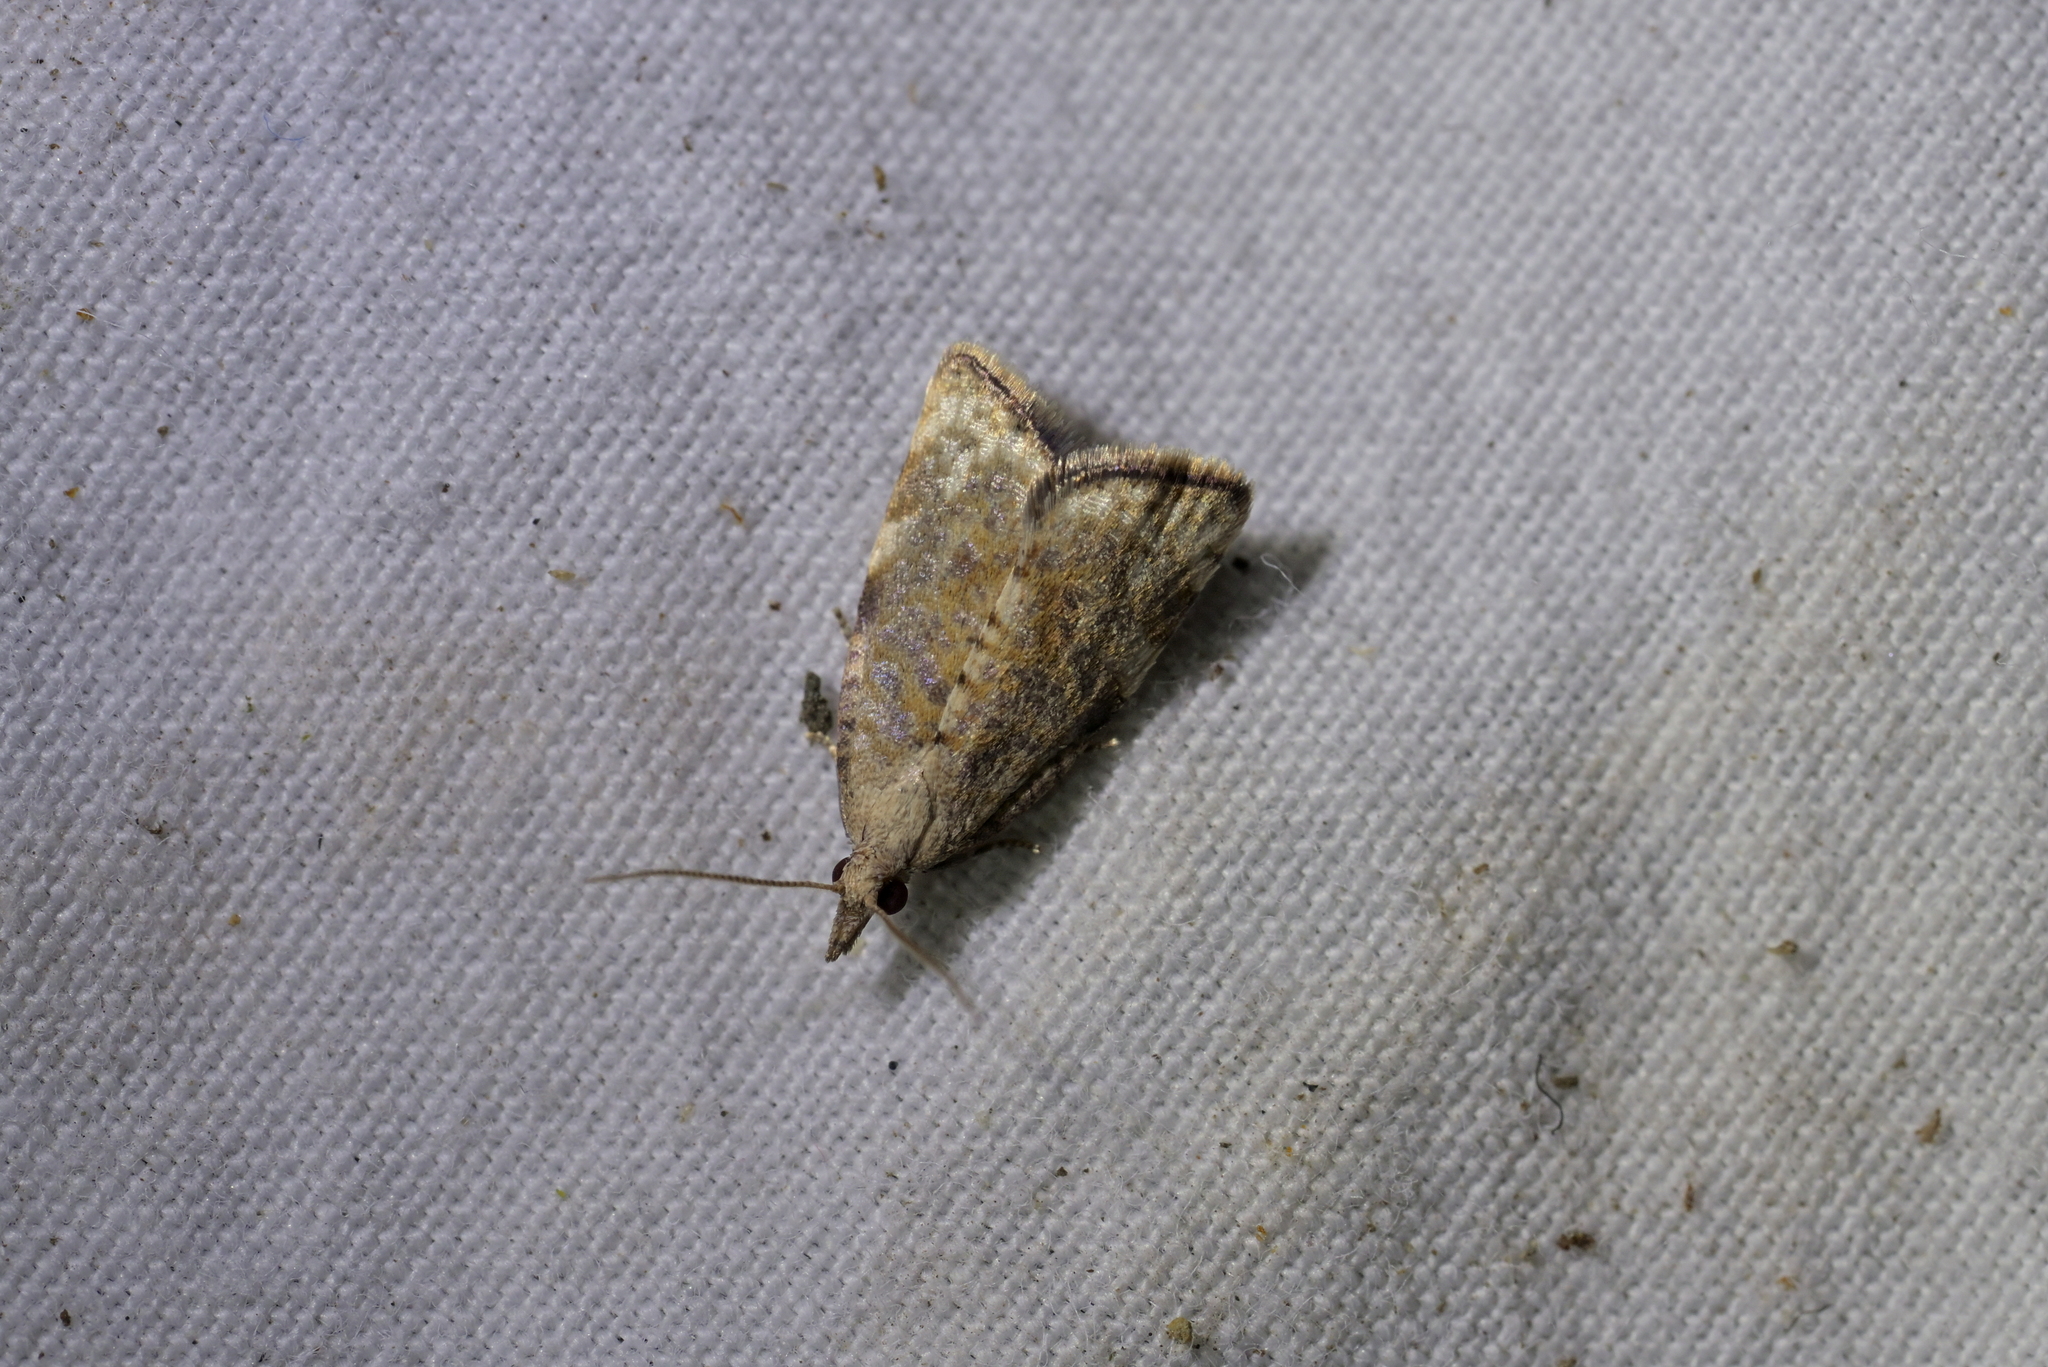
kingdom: Animalia
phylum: Arthropoda
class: Insecta
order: Lepidoptera
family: Tortricidae
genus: Catamacta
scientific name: Catamacta gavisana
